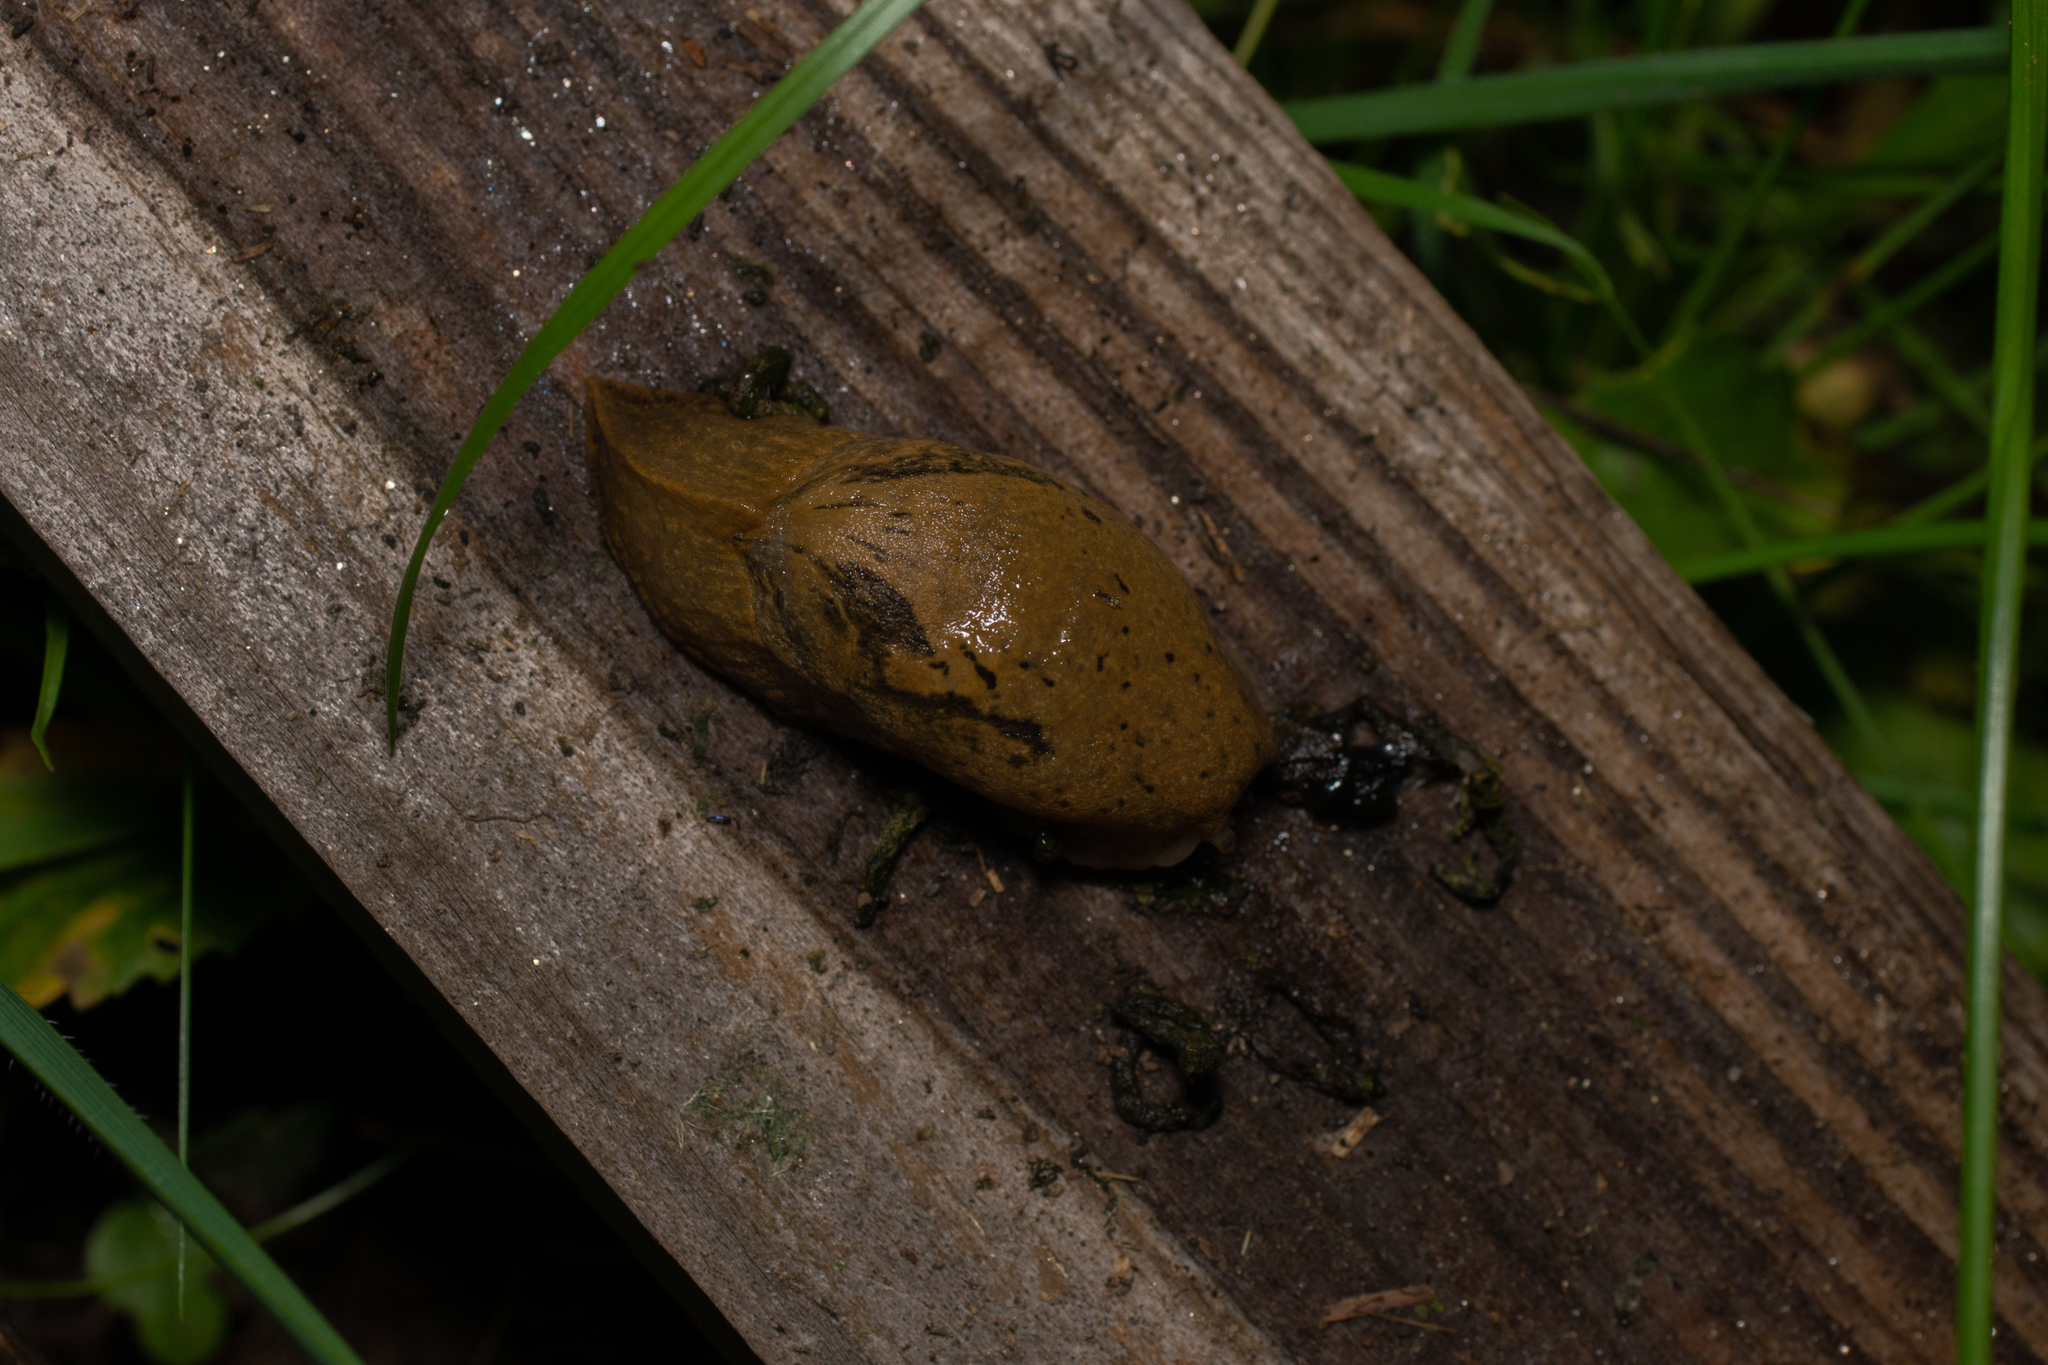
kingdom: Animalia
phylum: Mollusca
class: Gastropoda
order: Stylommatophora
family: Parmacellidae
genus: Drusia
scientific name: Drusia valenciennii
